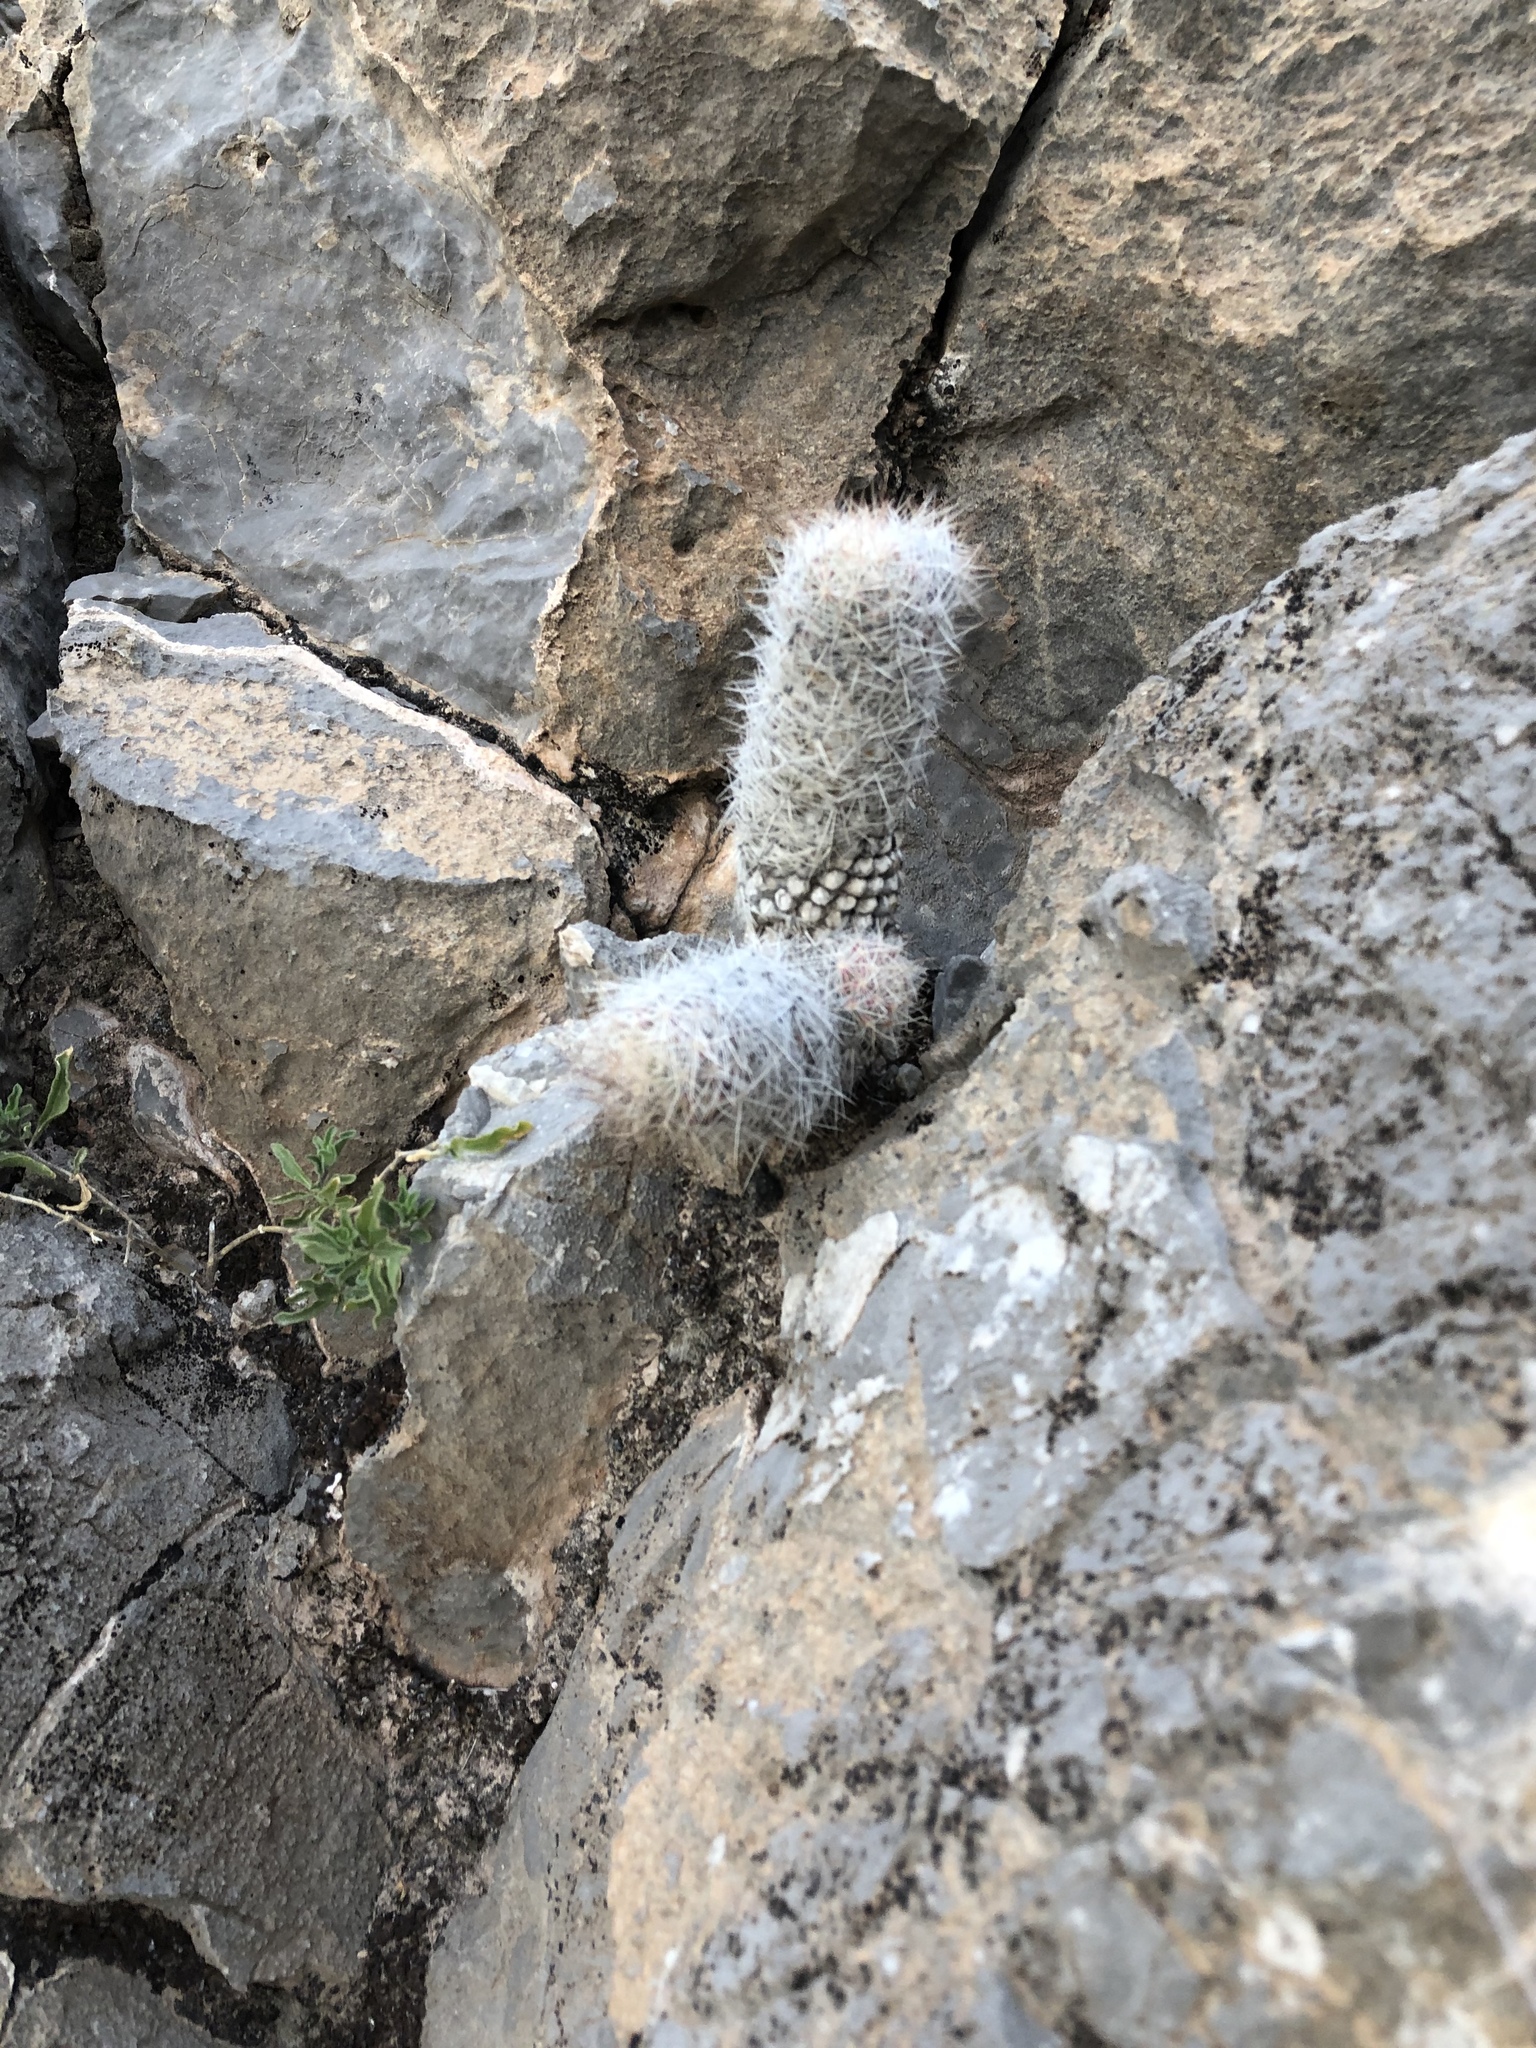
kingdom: Plantae
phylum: Tracheophyta
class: Magnoliopsida
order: Caryophyllales
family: Cactaceae
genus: Pelecyphora
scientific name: Pelecyphora tuberculosa
